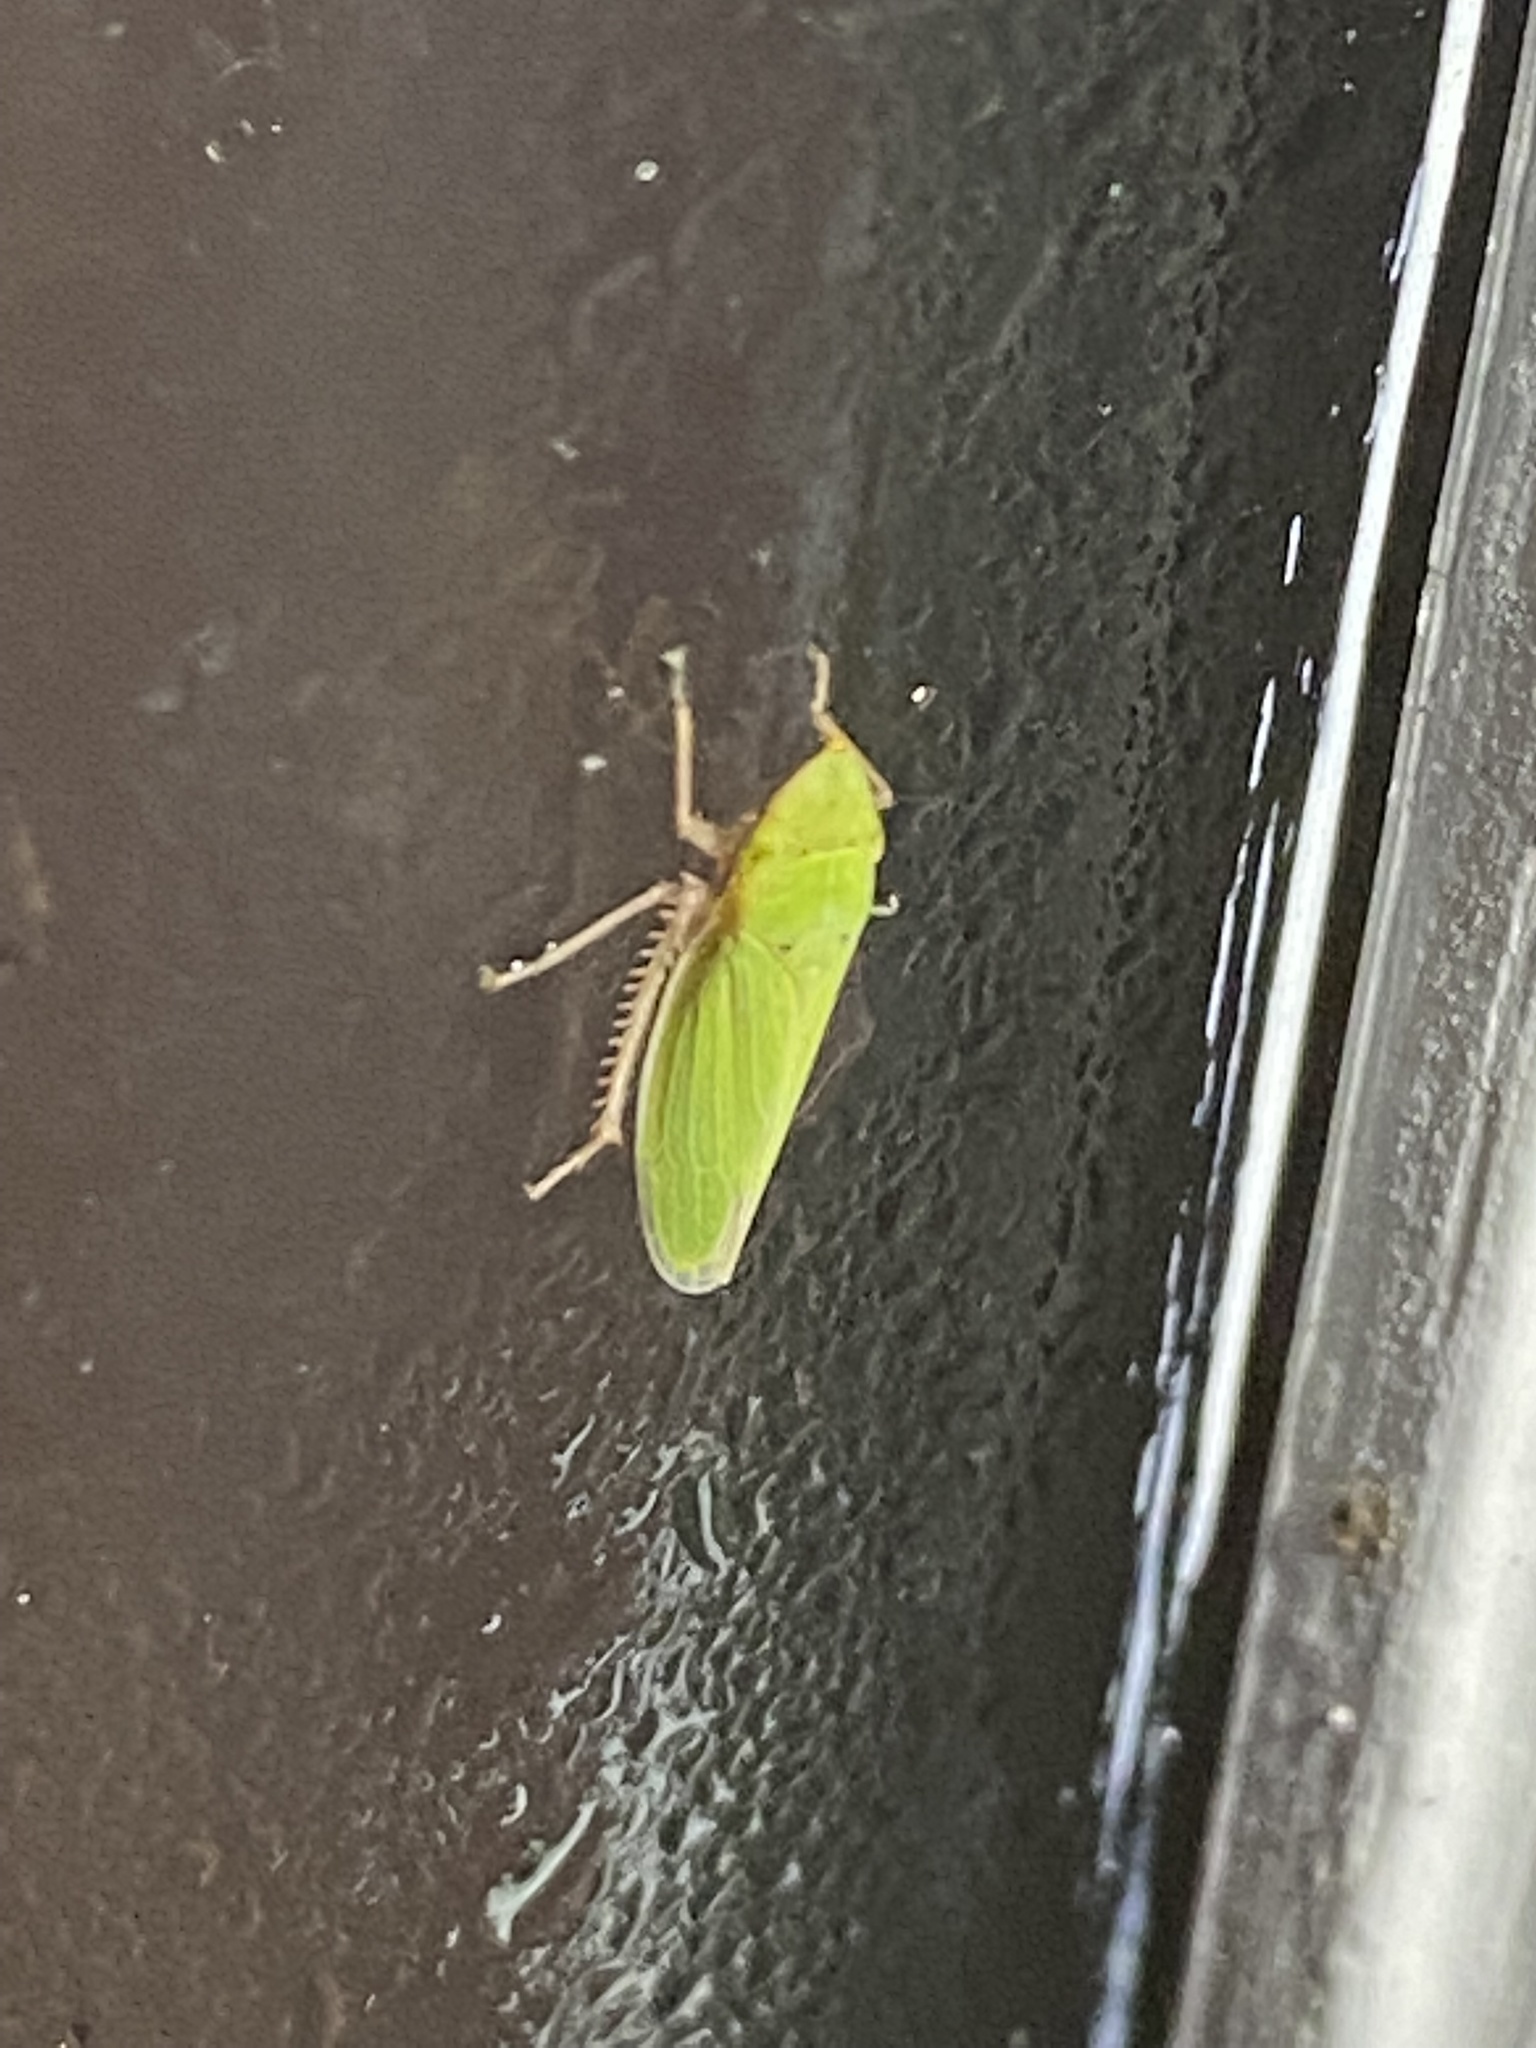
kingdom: Animalia
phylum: Arthropoda
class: Insecta
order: Hemiptera
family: Cicadellidae
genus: Draeculacephala
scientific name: Draeculacephala balli
